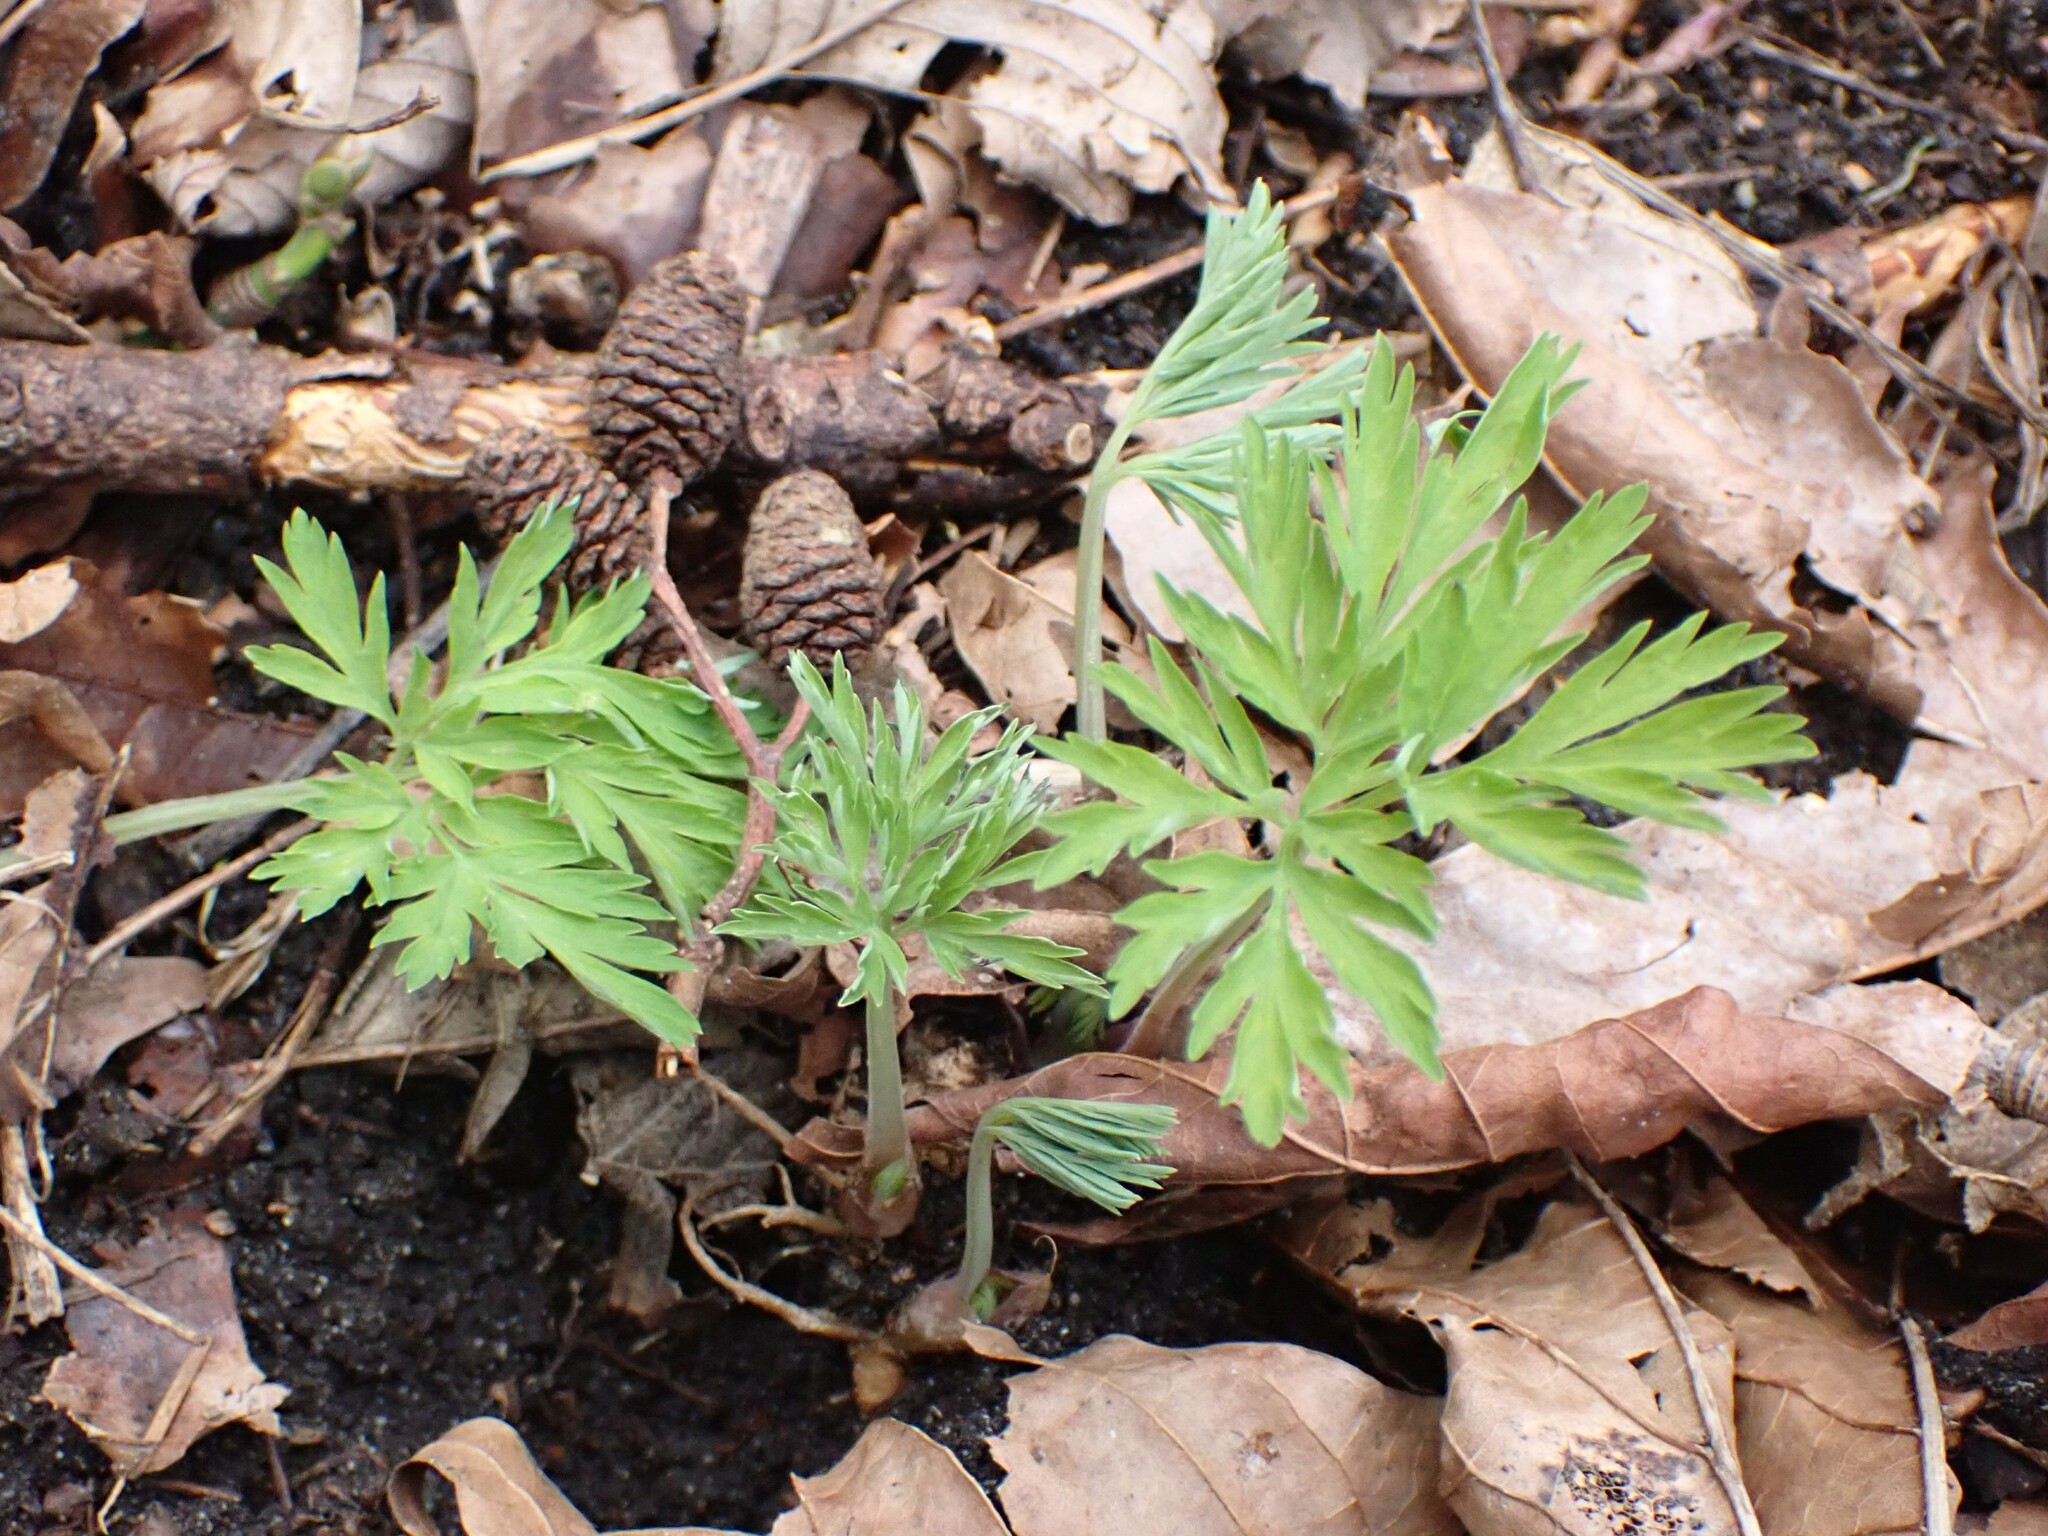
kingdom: Plantae
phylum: Tracheophyta
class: Magnoliopsida
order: Ranunculales
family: Papaveraceae
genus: Dicentra
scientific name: Dicentra formosa
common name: Bleeding-heart
